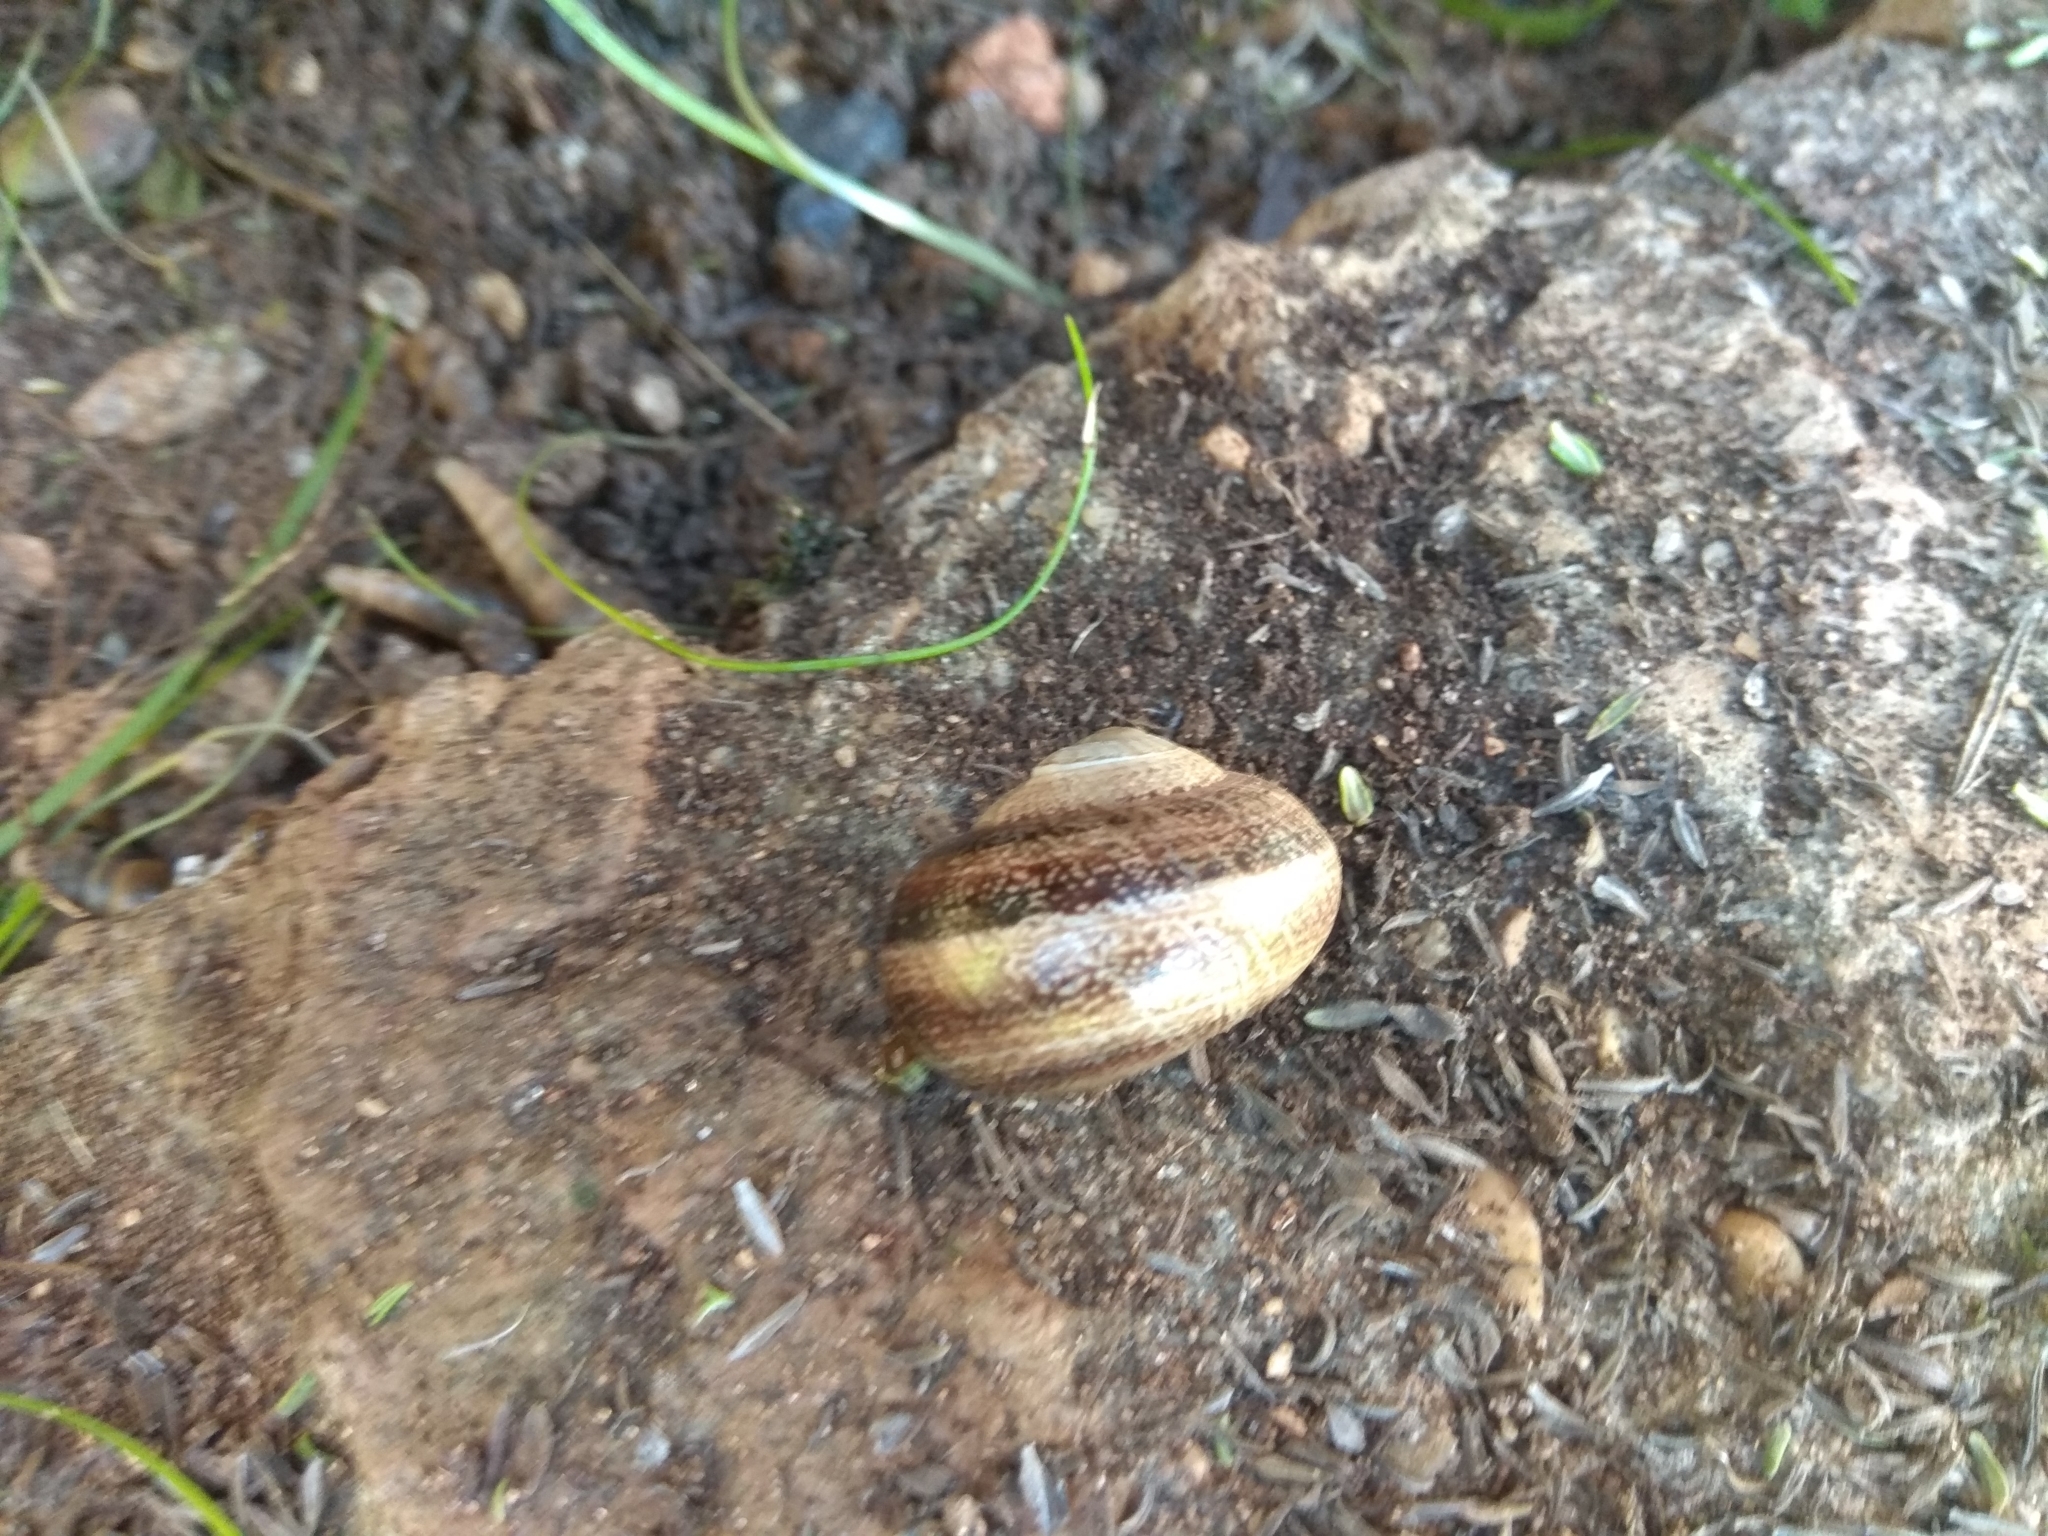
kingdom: Animalia
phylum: Mollusca
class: Gastropoda
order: Stylommatophora
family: Helicidae
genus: Otala
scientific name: Otala lactea
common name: Milk snail
